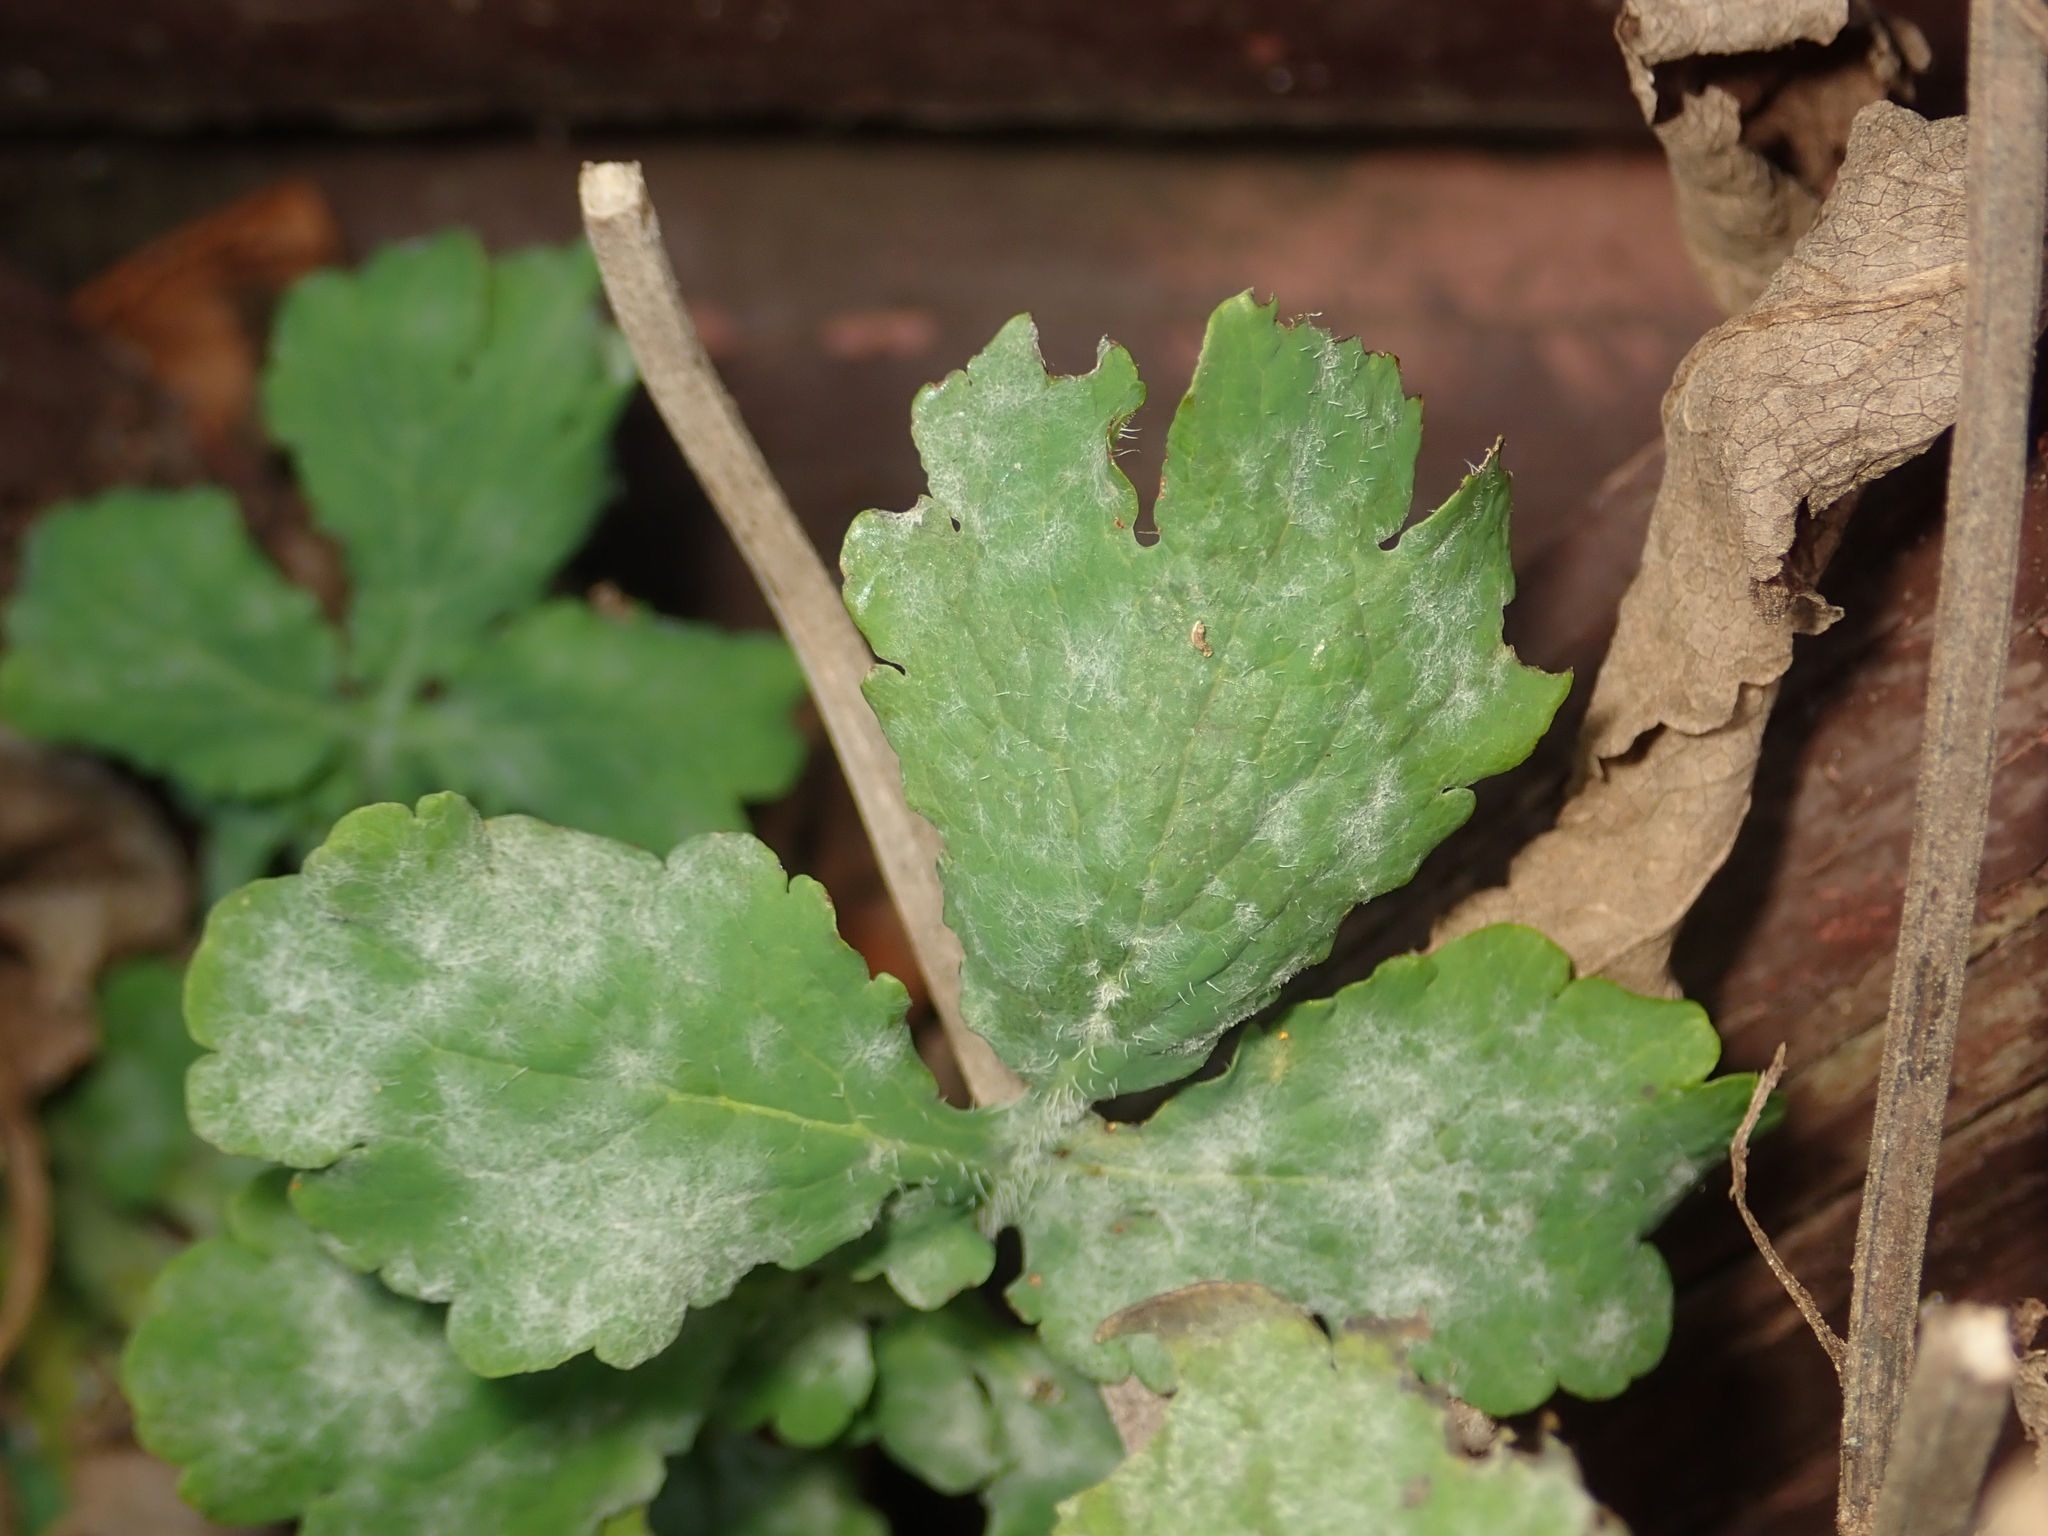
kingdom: Plantae
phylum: Tracheophyta
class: Magnoliopsida
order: Ranunculales
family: Papaveraceae
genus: Chelidonium
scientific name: Chelidonium majus
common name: Greater celandine
